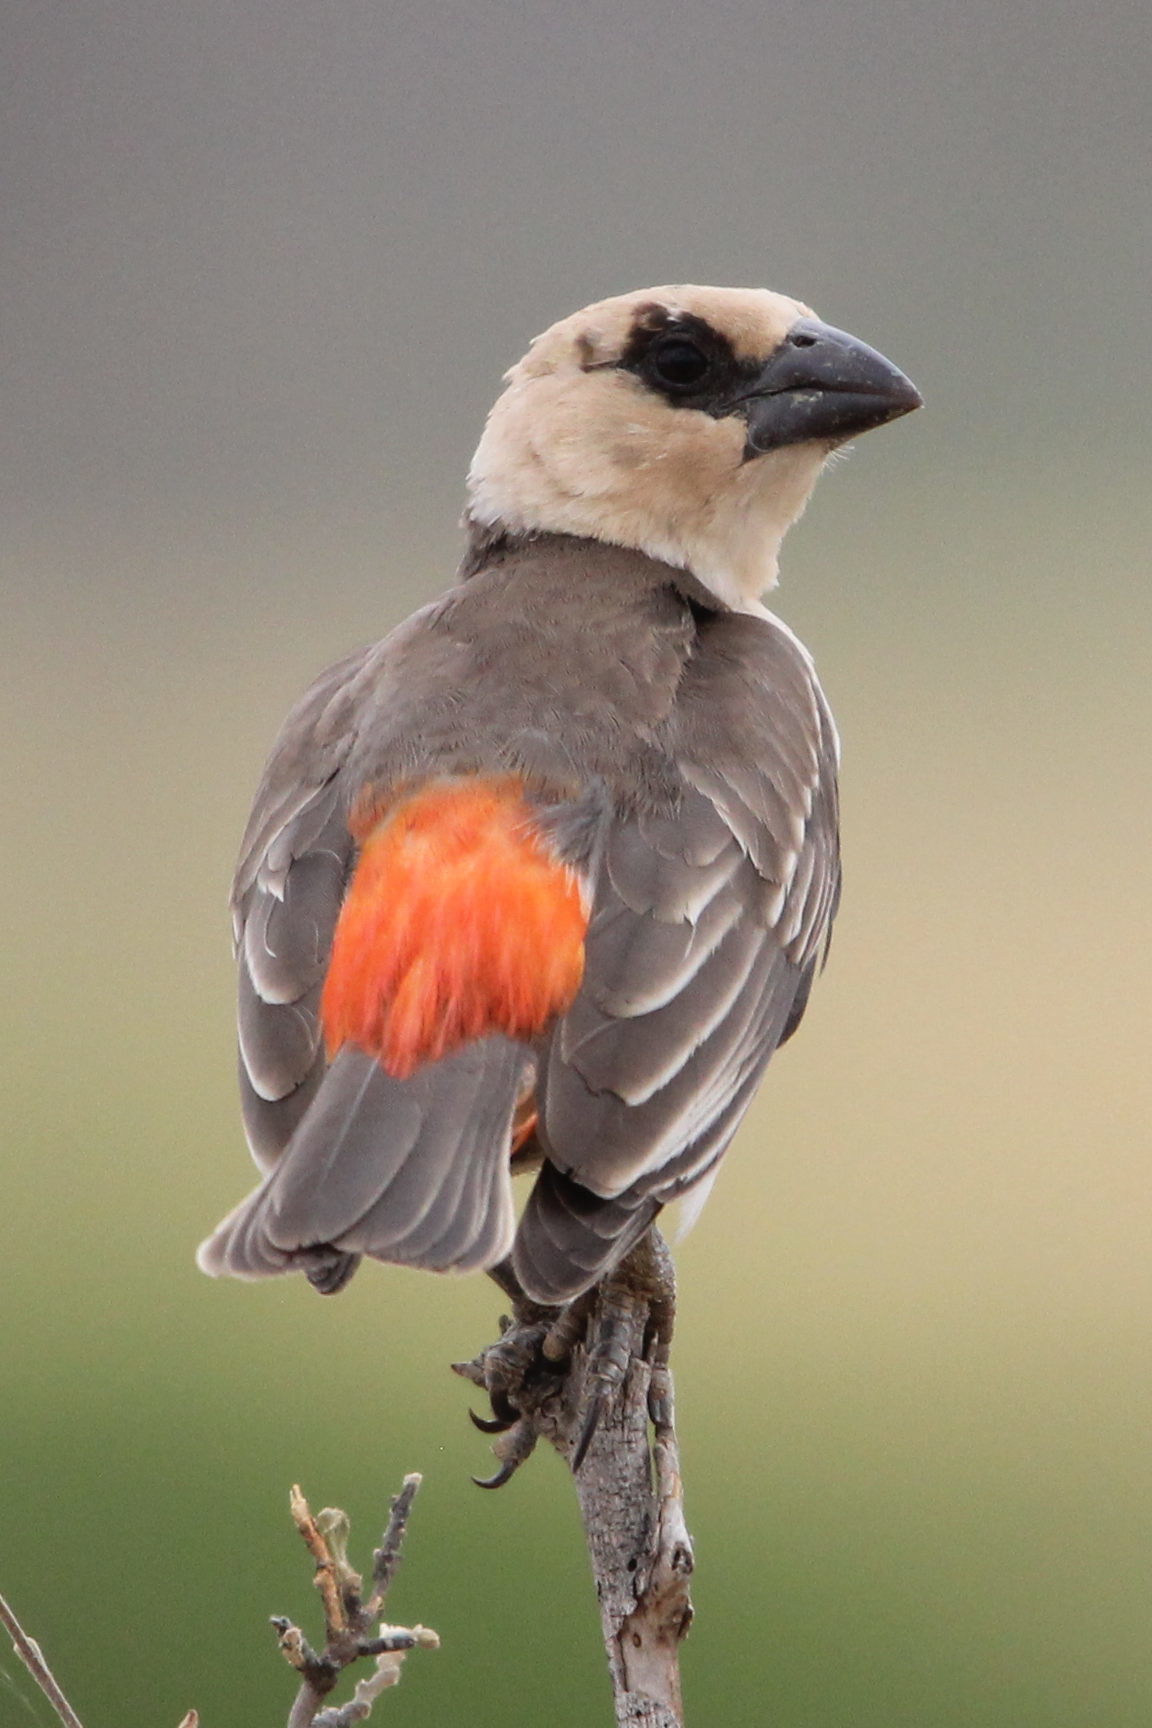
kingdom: Animalia
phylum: Chordata
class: Aves
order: Passeriformes
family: Ploceidae
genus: Dinemellia
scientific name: Dinemellia dinemelli
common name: White-headed buffalo weaver
